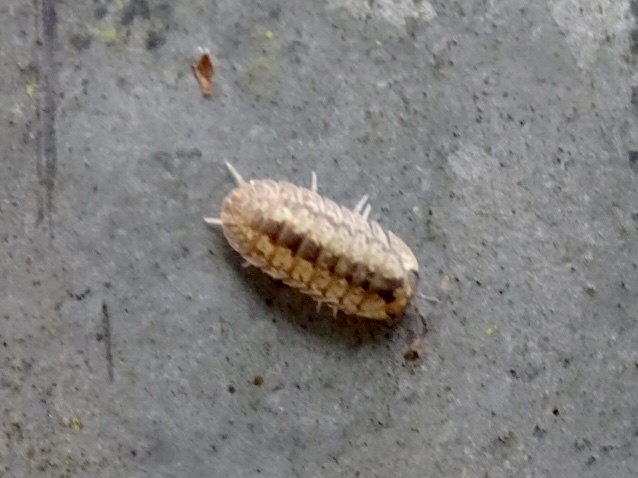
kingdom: Animalia
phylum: Arthropoda
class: Malacostraca
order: Isopoda
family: Armadillidae
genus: Dryadillo
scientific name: Dryadillo maculatus
